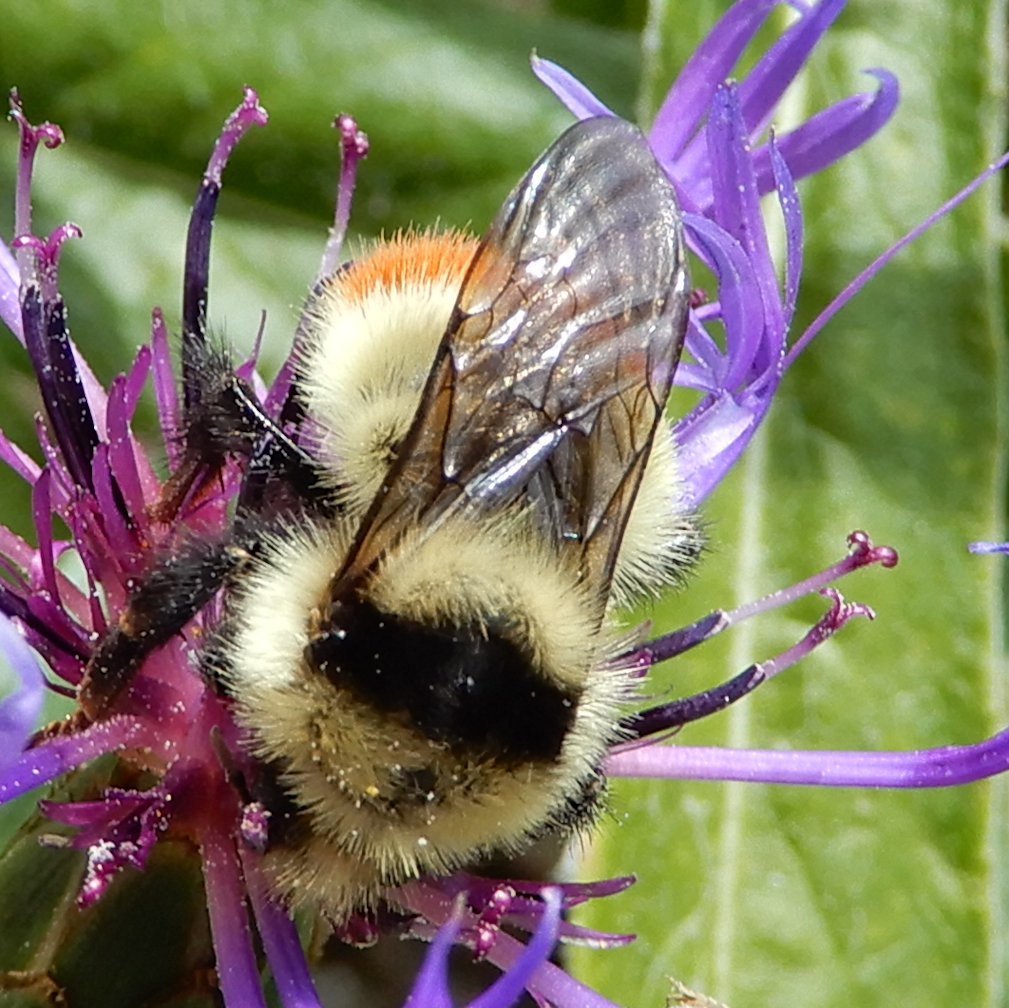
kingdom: Animalia
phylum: Arthropoda
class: Insecta
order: Hymenoptera
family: Apidae
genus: Bombus
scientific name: Bombus centralis
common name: Central bumble bee
